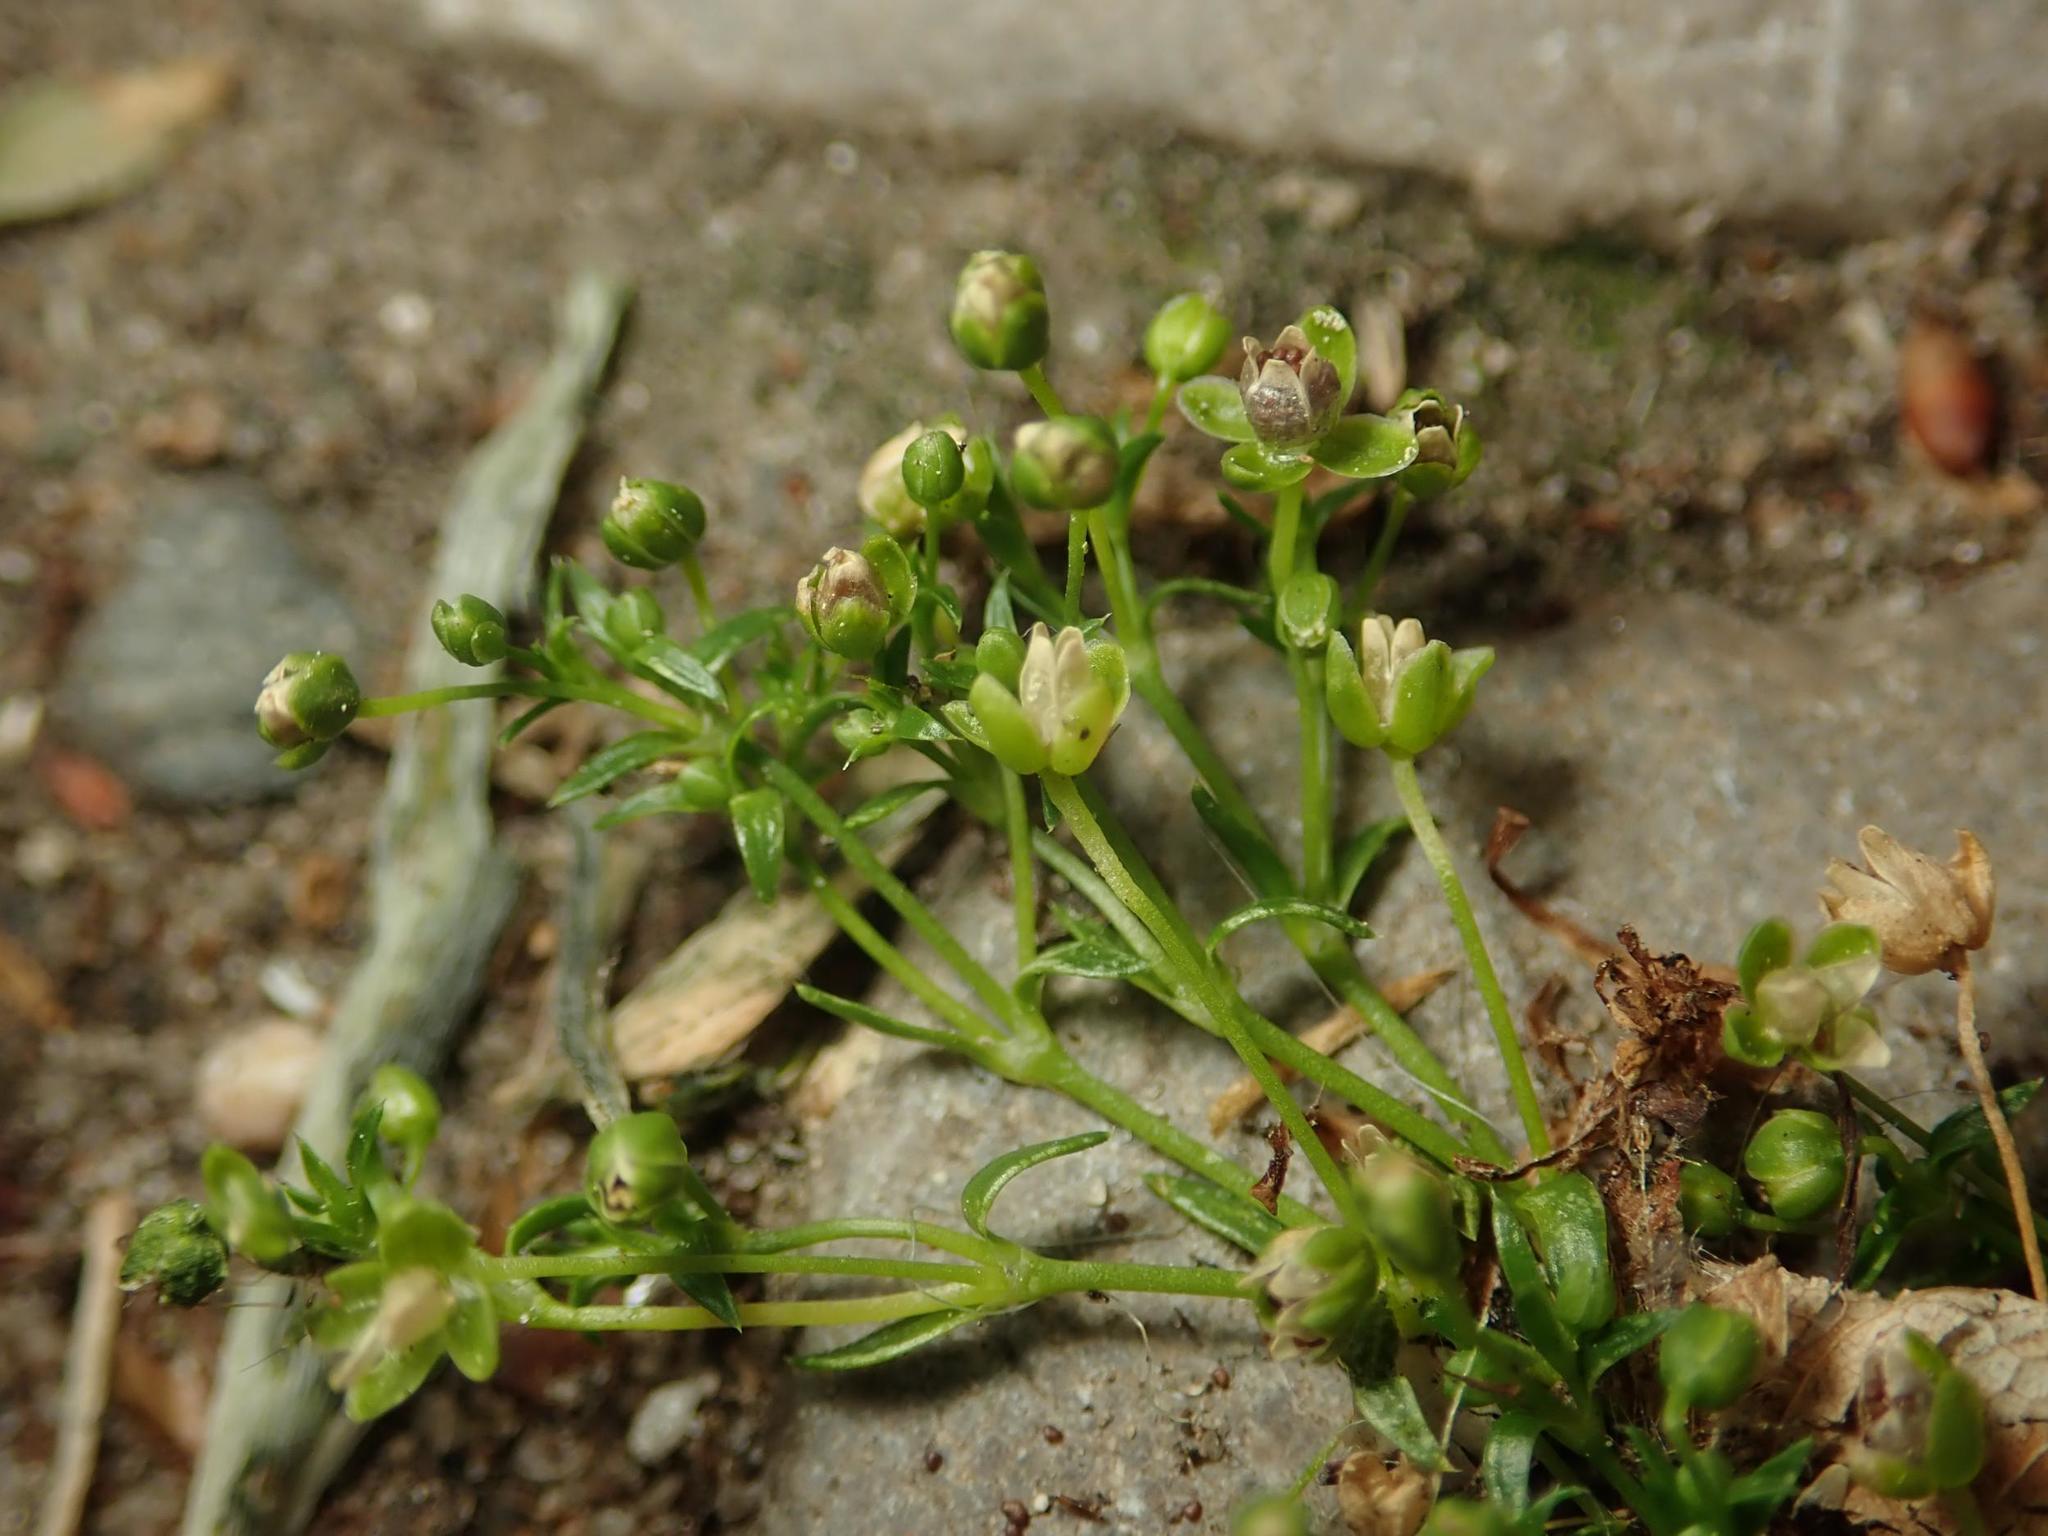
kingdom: Plantae
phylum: Tracheophyta
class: Magnoliopsida
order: Caryophyllales
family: Caryophyllaceae
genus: Sagina
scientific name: Sagina procumbens
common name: Procumbent pearlwort
